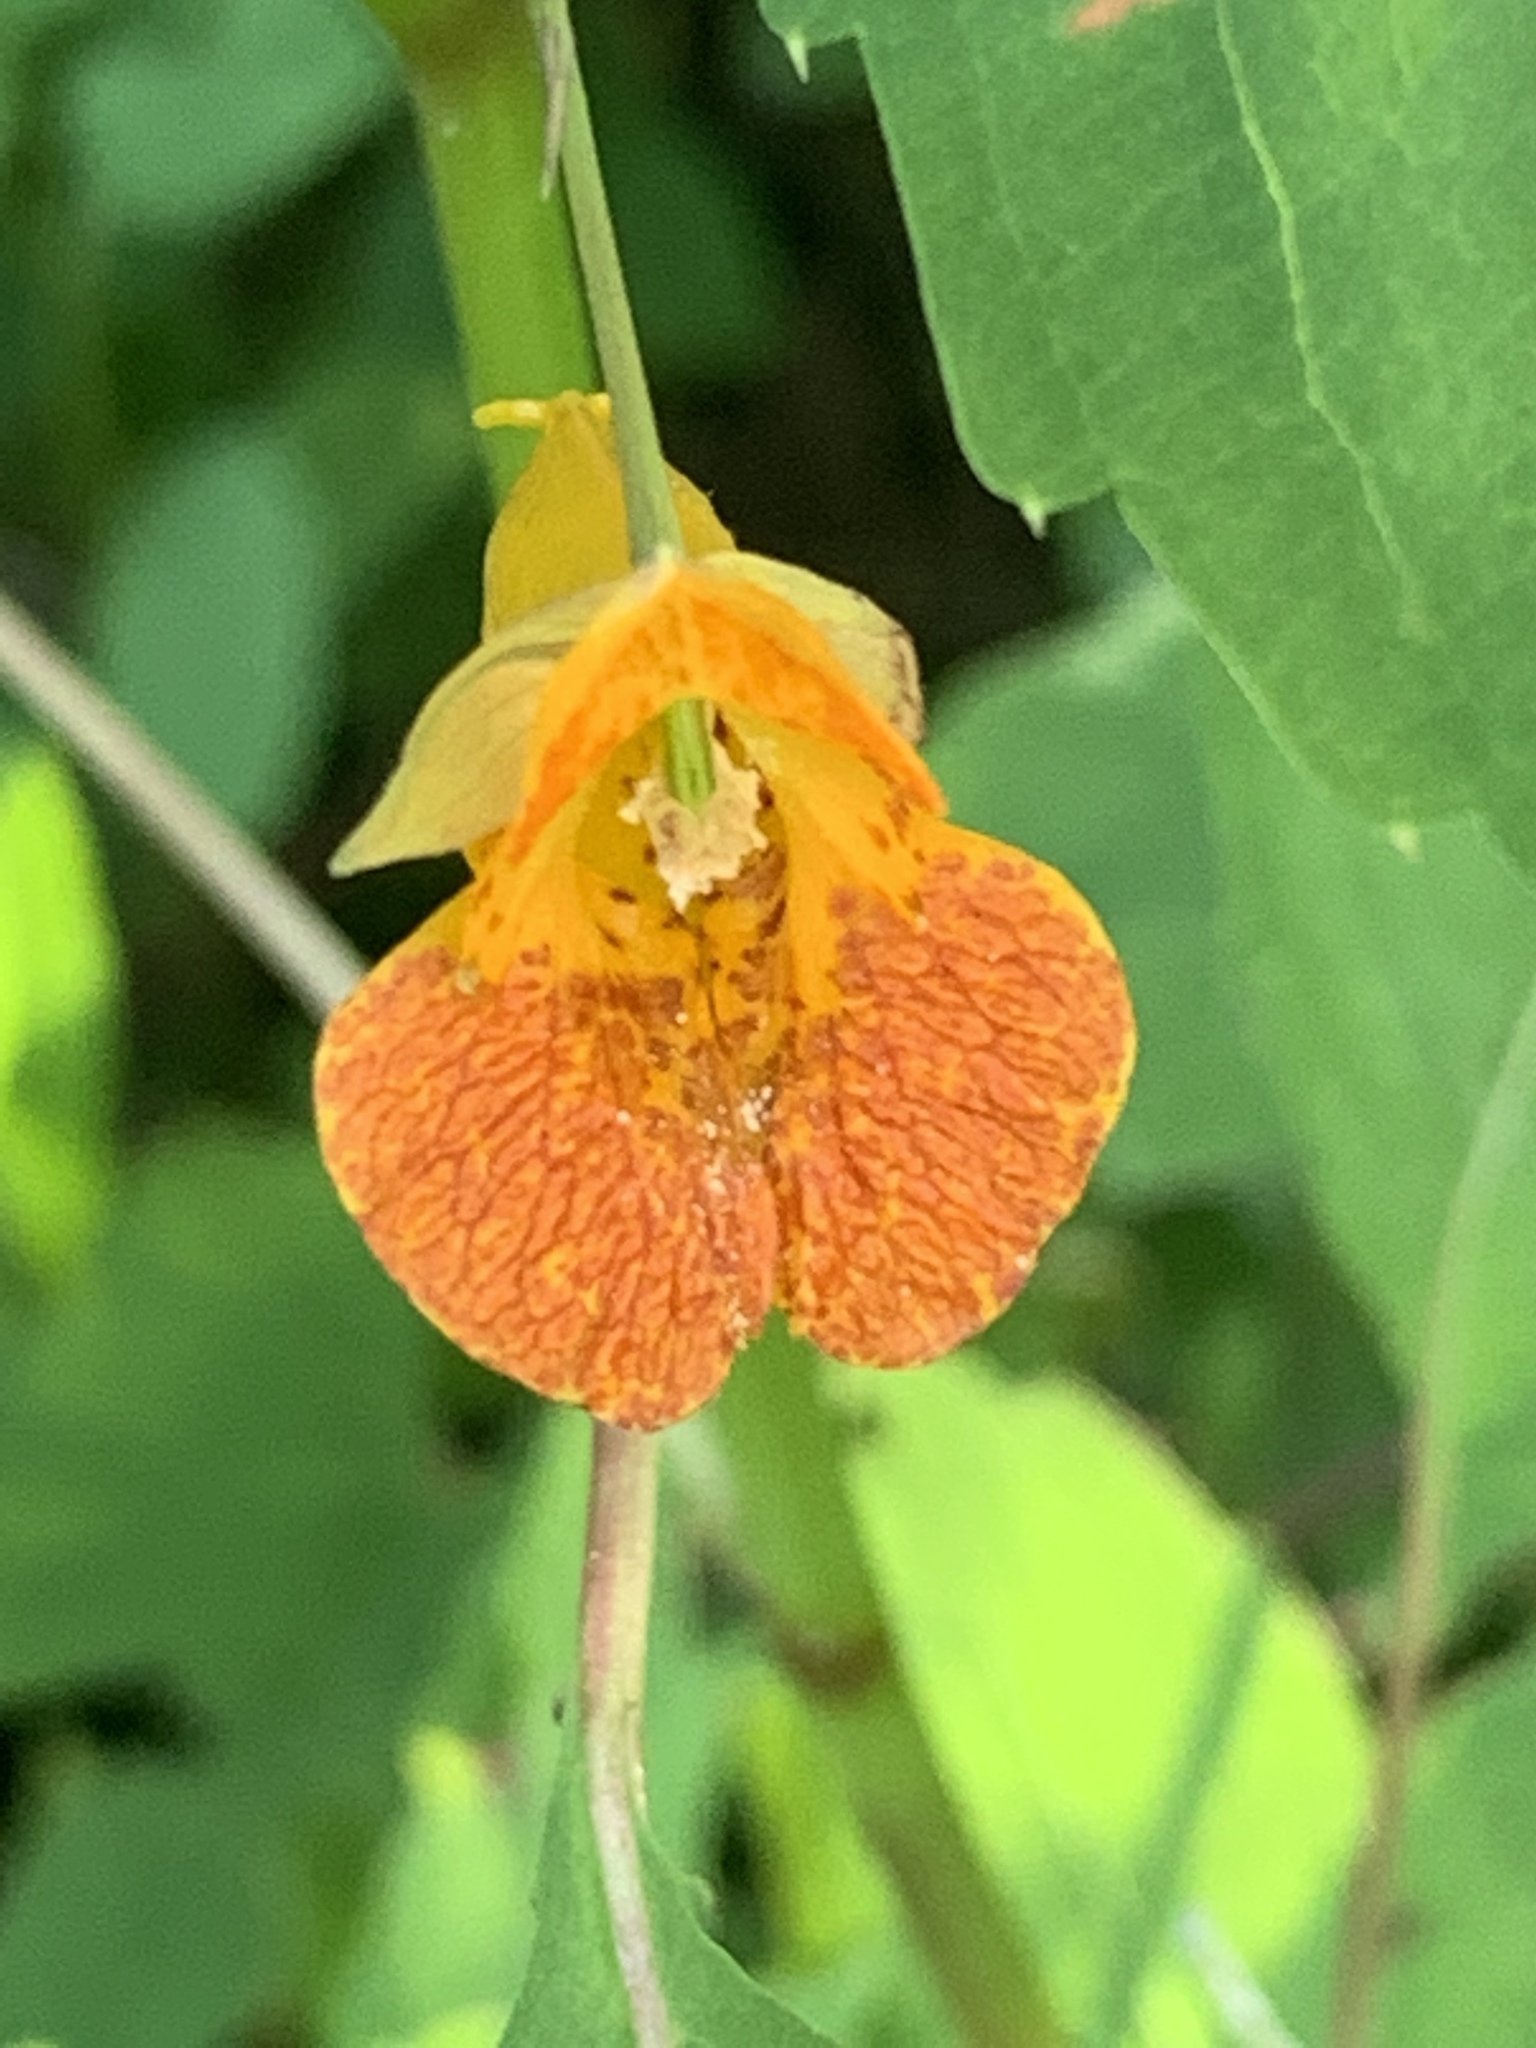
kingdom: Plantae
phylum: Tracheophyta
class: Magnoliopsida
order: Ericales
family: Balsaminaceae
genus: Impatiens
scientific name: Impatiens capensis
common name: Orange balsam
